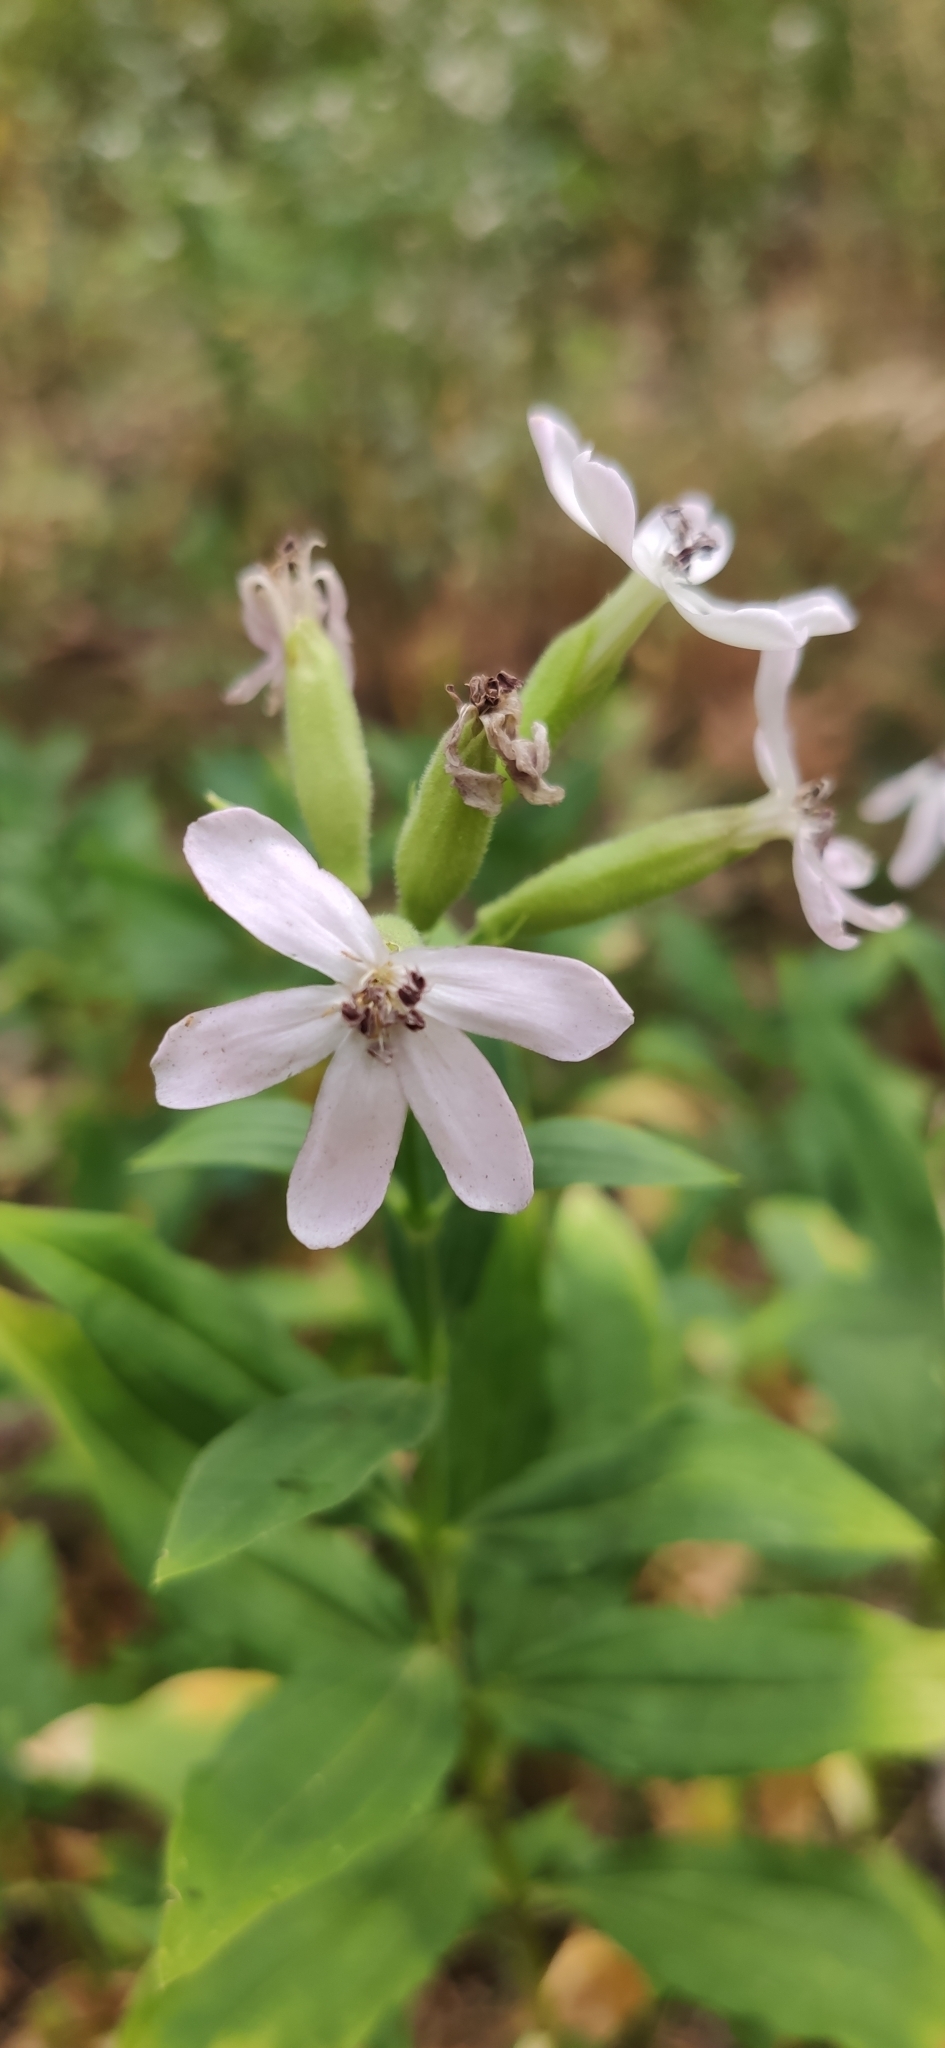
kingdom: Plantae
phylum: Tracheophyta
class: Magnoliopsida
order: Caryophyllales
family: Caryophyllaceae
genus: Saponaria
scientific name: Saponaria officinalis
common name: Soapwort
